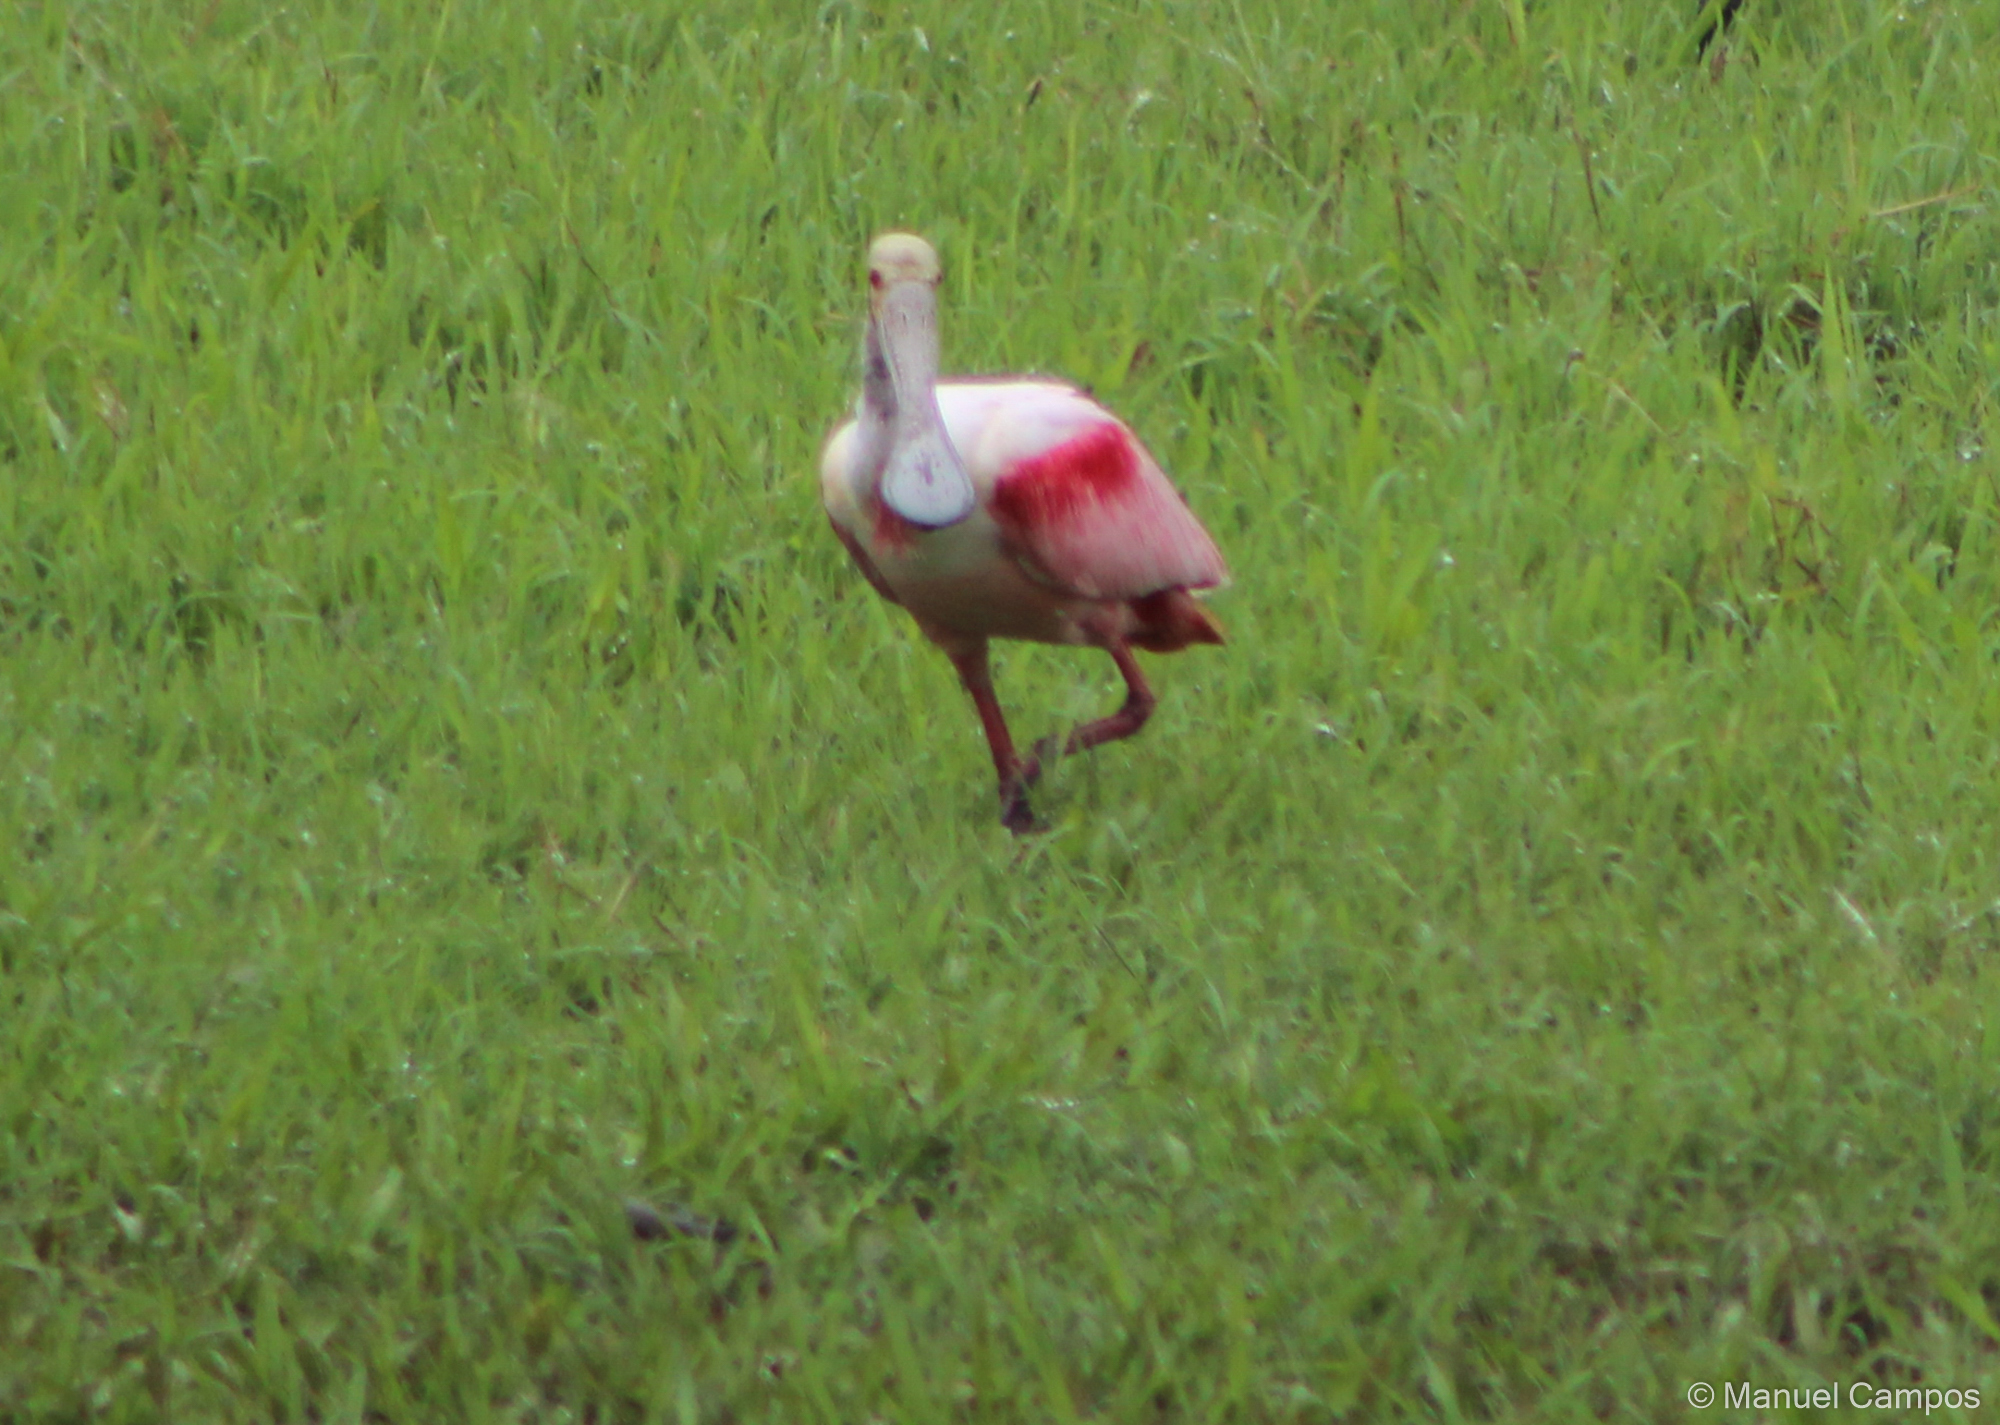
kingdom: Animalia
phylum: Chordata
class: Aves
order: Pelecaniformes
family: Threskiornithidae
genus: Platalea
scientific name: Platalea ajaja
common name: Roseate spoonbill
